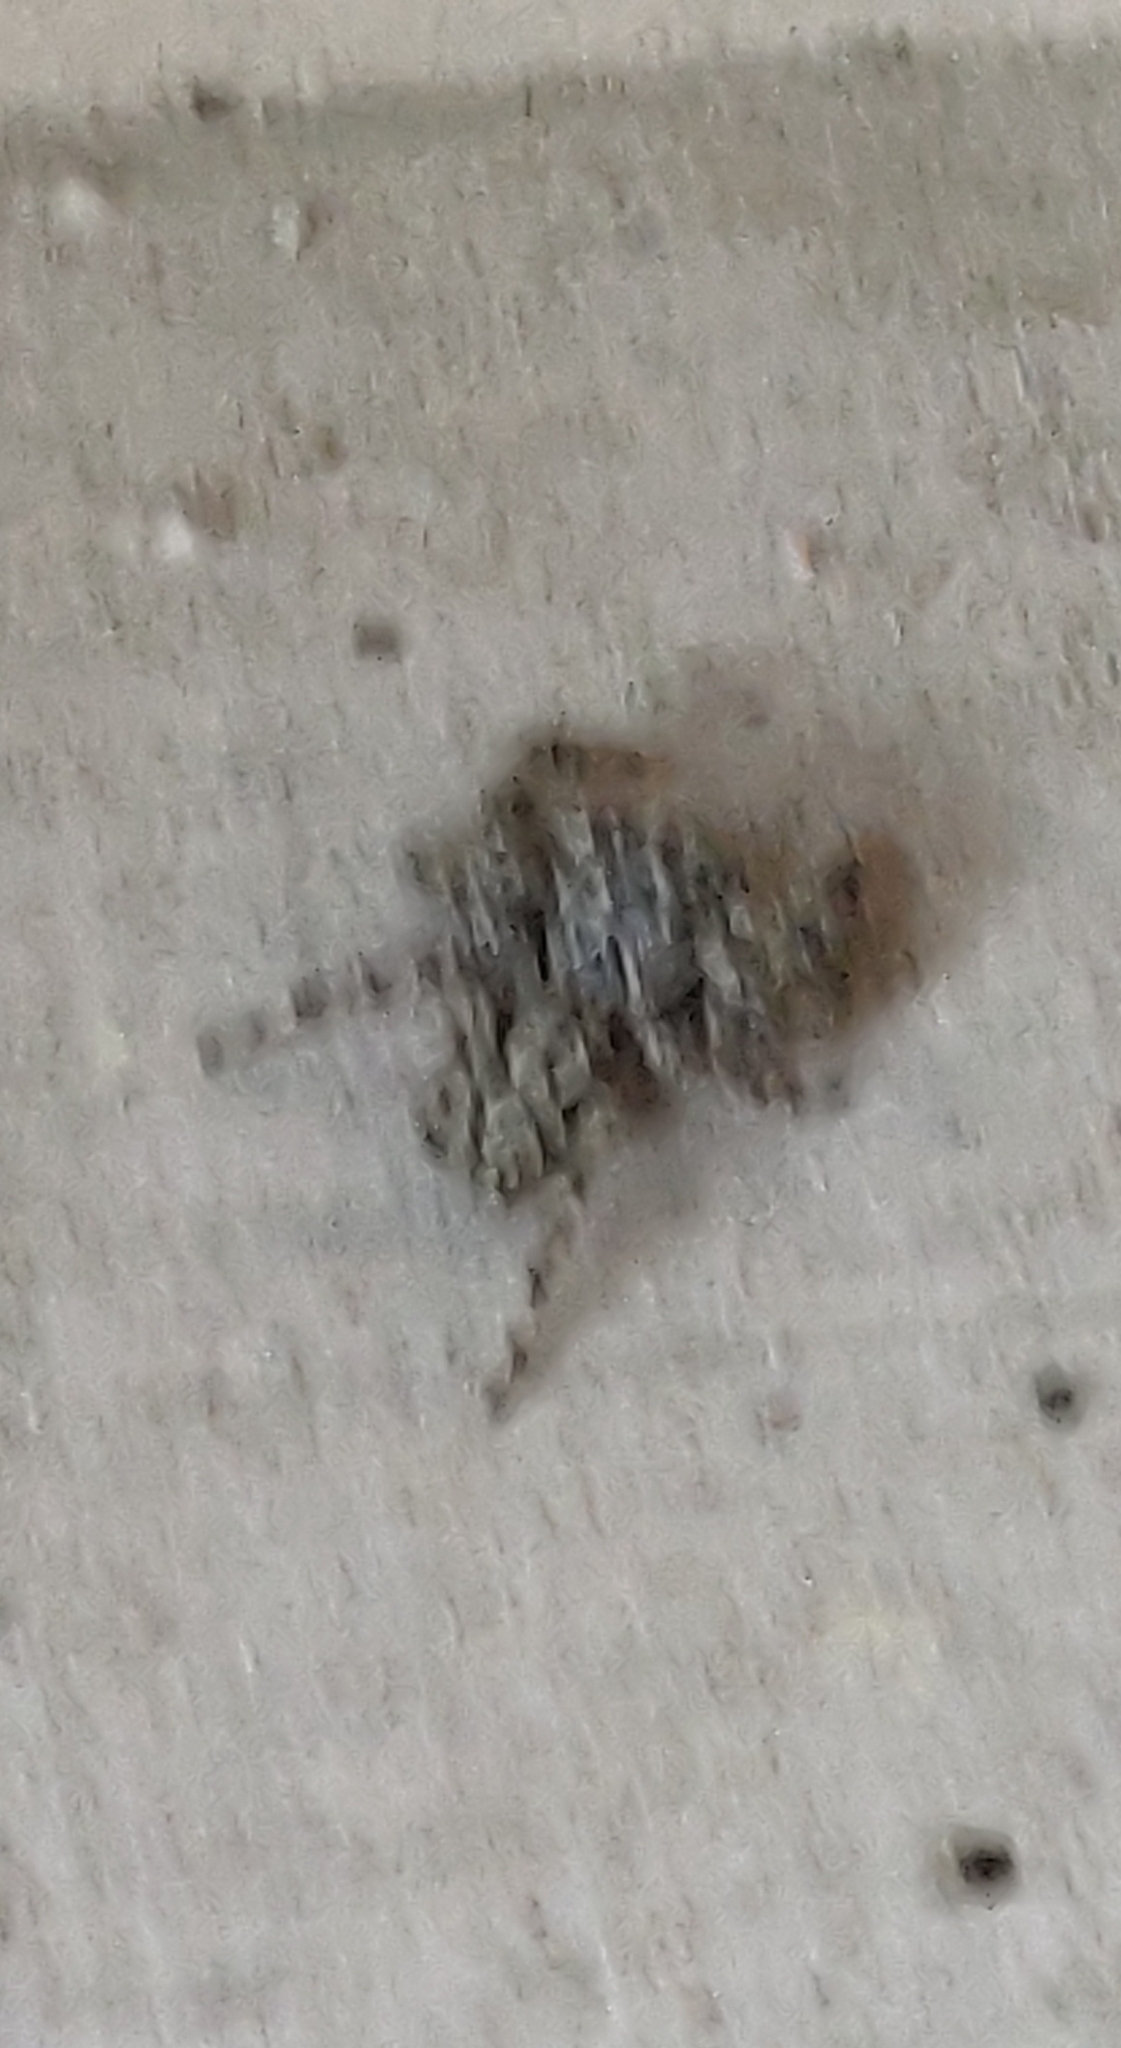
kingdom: Animalia
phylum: Arthropoda
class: Arachnida
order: Araneae
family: Salticidae
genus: Platycryptus
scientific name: Platycryptus undatus
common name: Tan jumping spider
